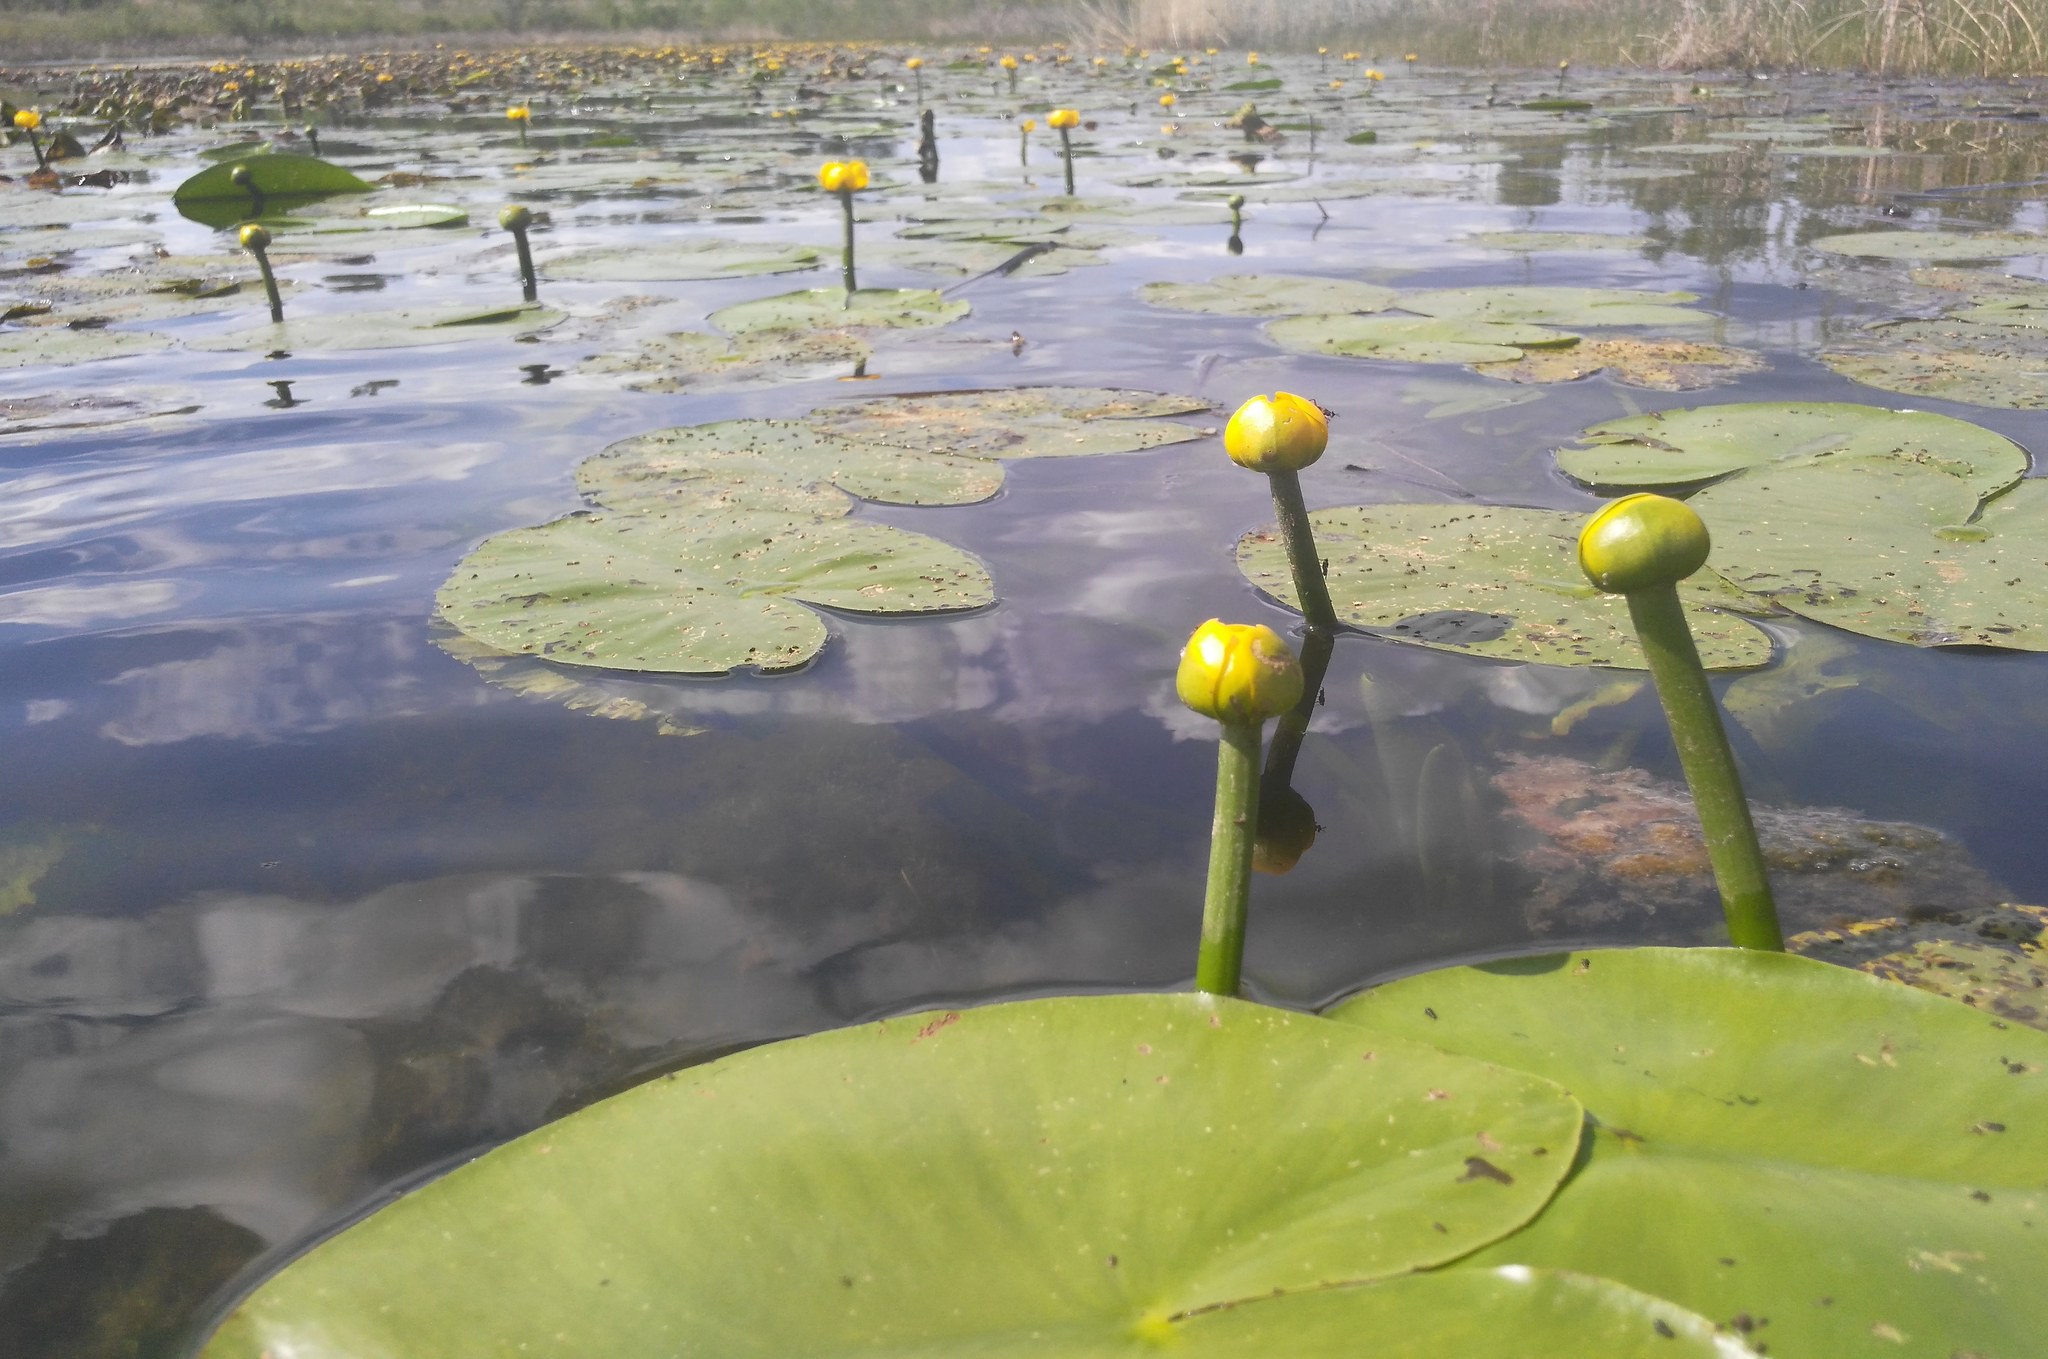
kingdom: Plantae
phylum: Tracheophyta
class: Magnoliopsida
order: Nymphaeales
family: Nymphaeaceae
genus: Nuphar
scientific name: Nuphar lutea
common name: Yellow water-lily
